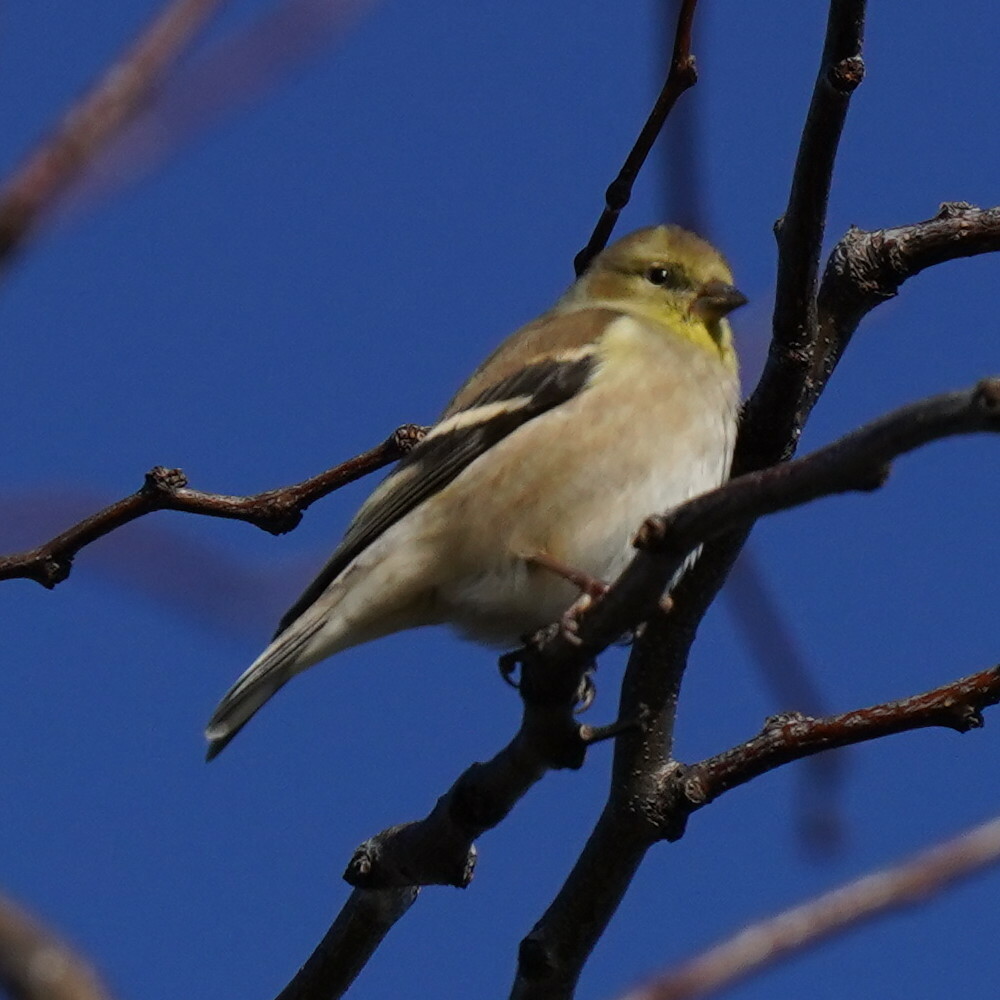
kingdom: Animalia
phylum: Chordata
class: Aves
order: Passeriformes
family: Fringillidae
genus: Spinus
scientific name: Spinus tristis
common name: American goldfinch
